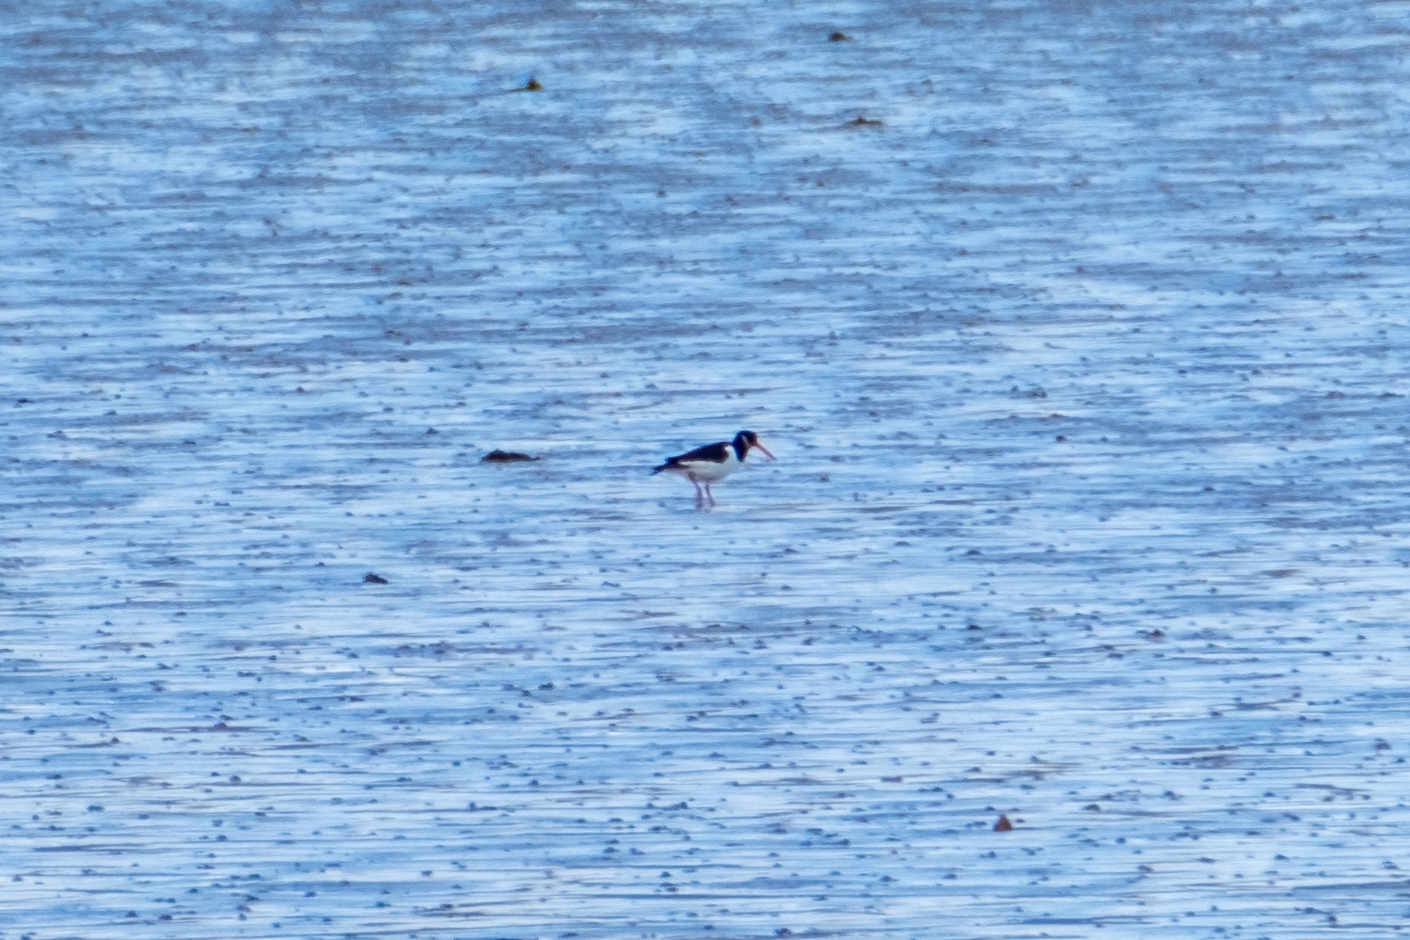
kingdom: Animalia
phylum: Chordata
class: Aves
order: Charadriiformes
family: Haematopodidae
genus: Haematopus
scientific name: Haematopus ostralegus
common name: Eurasian oystercatcher
